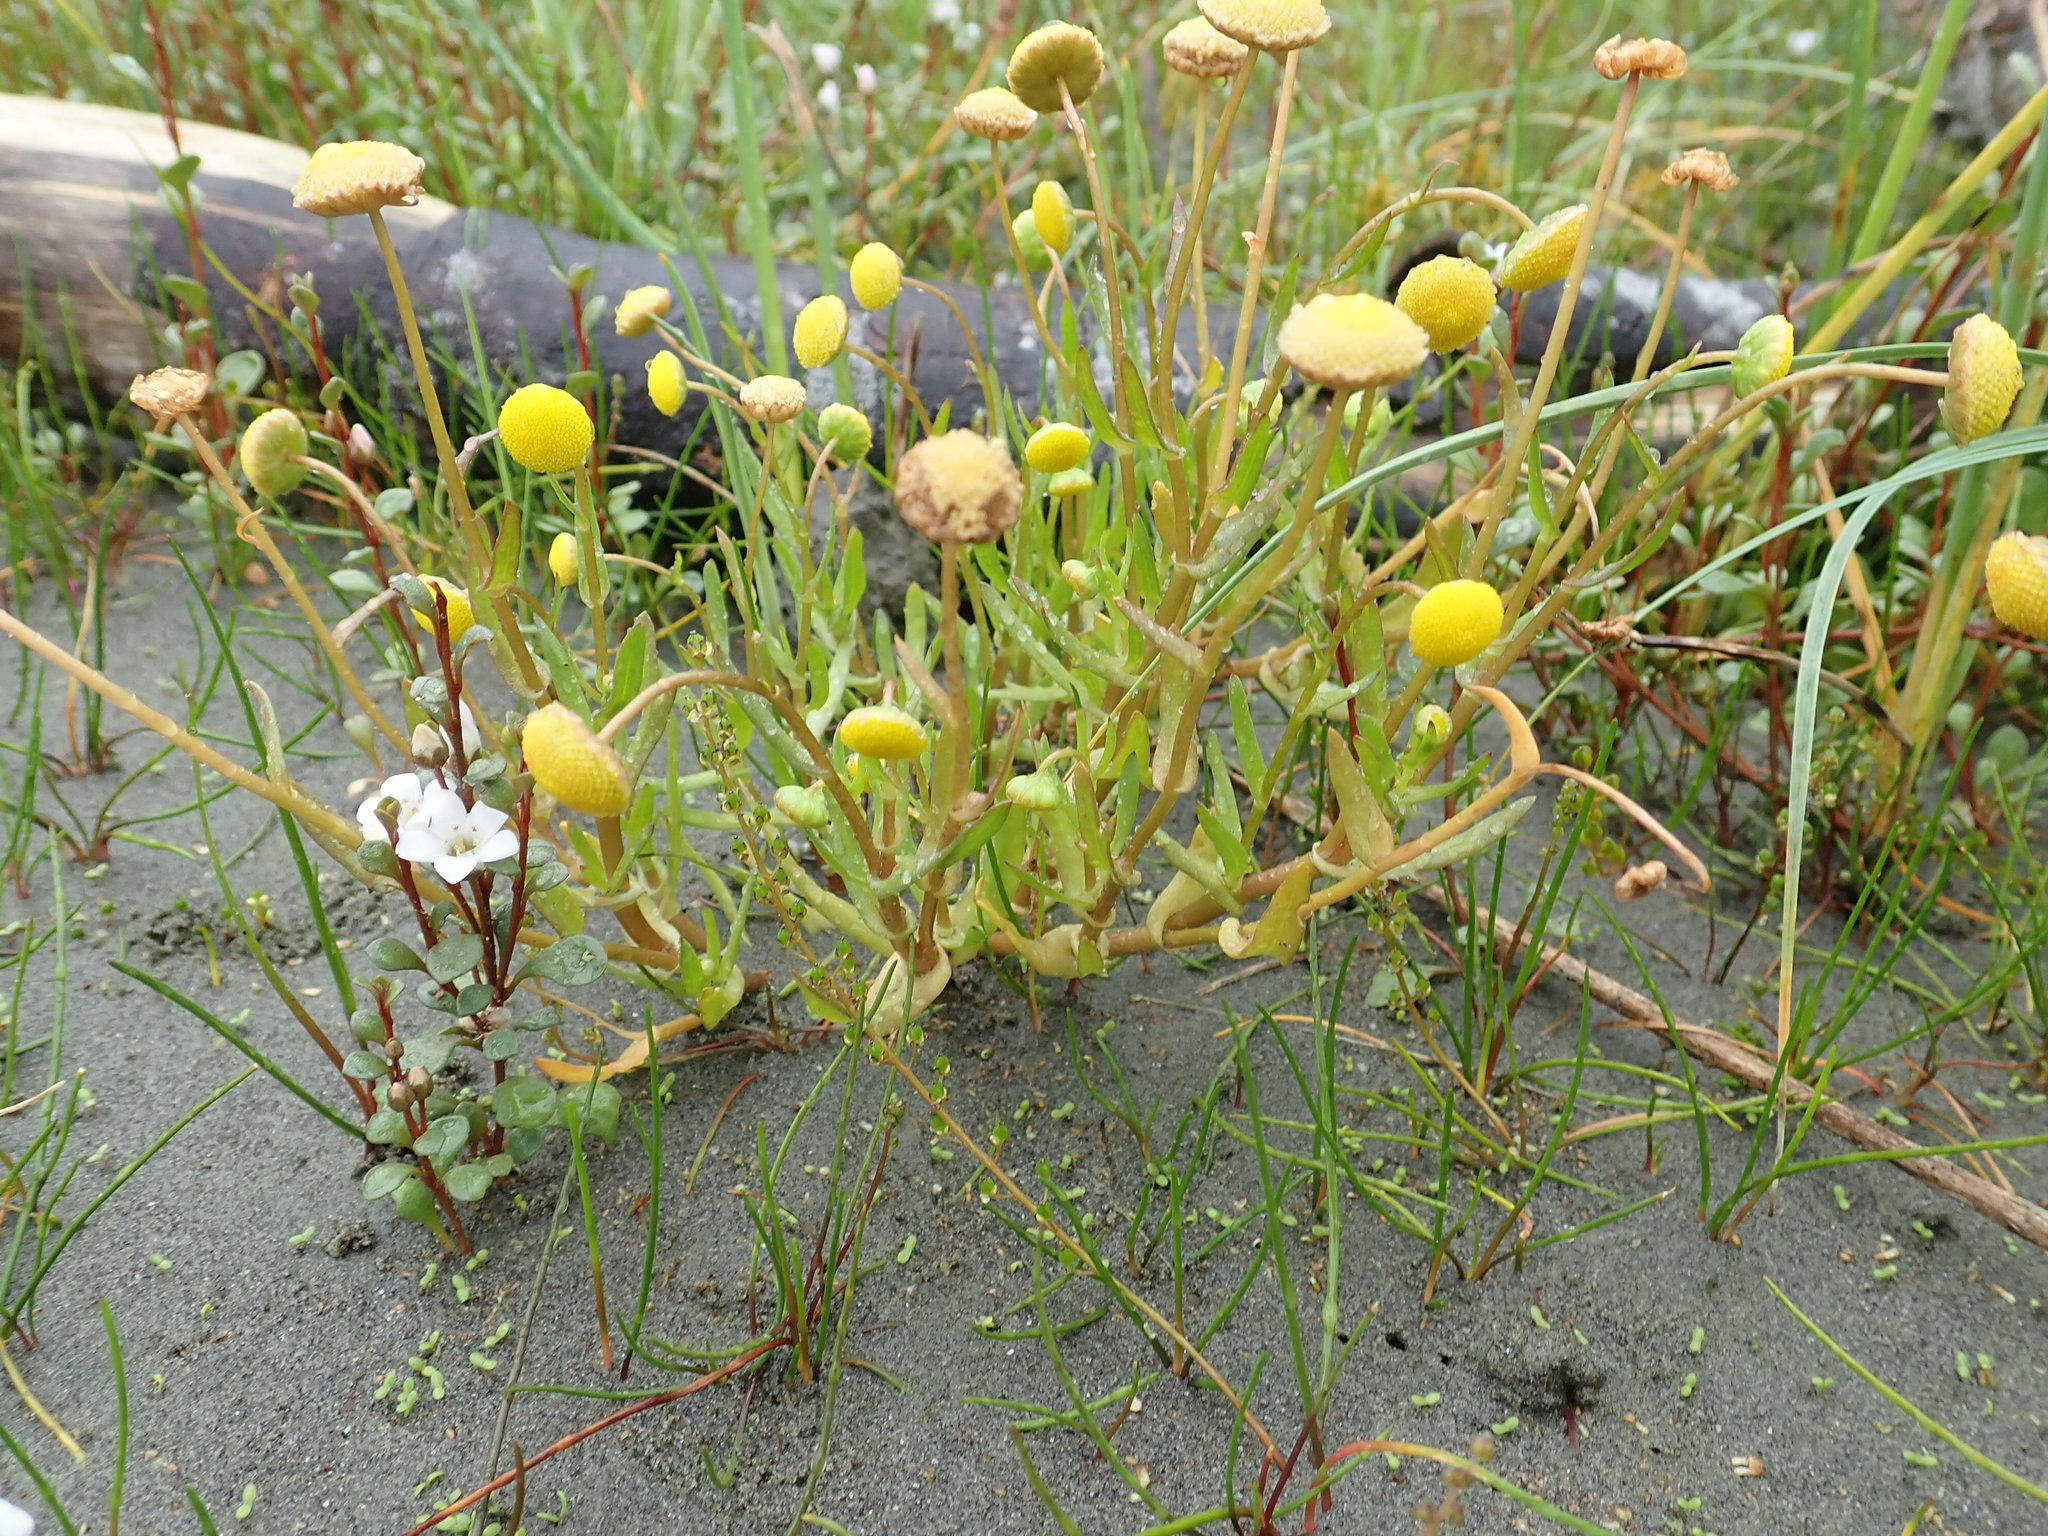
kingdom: Plantae
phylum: Tracheophyta
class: Magnoliopsida
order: Asterales
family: Asteraceae
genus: Cotula
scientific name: Cotula coronopifolia
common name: Buttonweed
